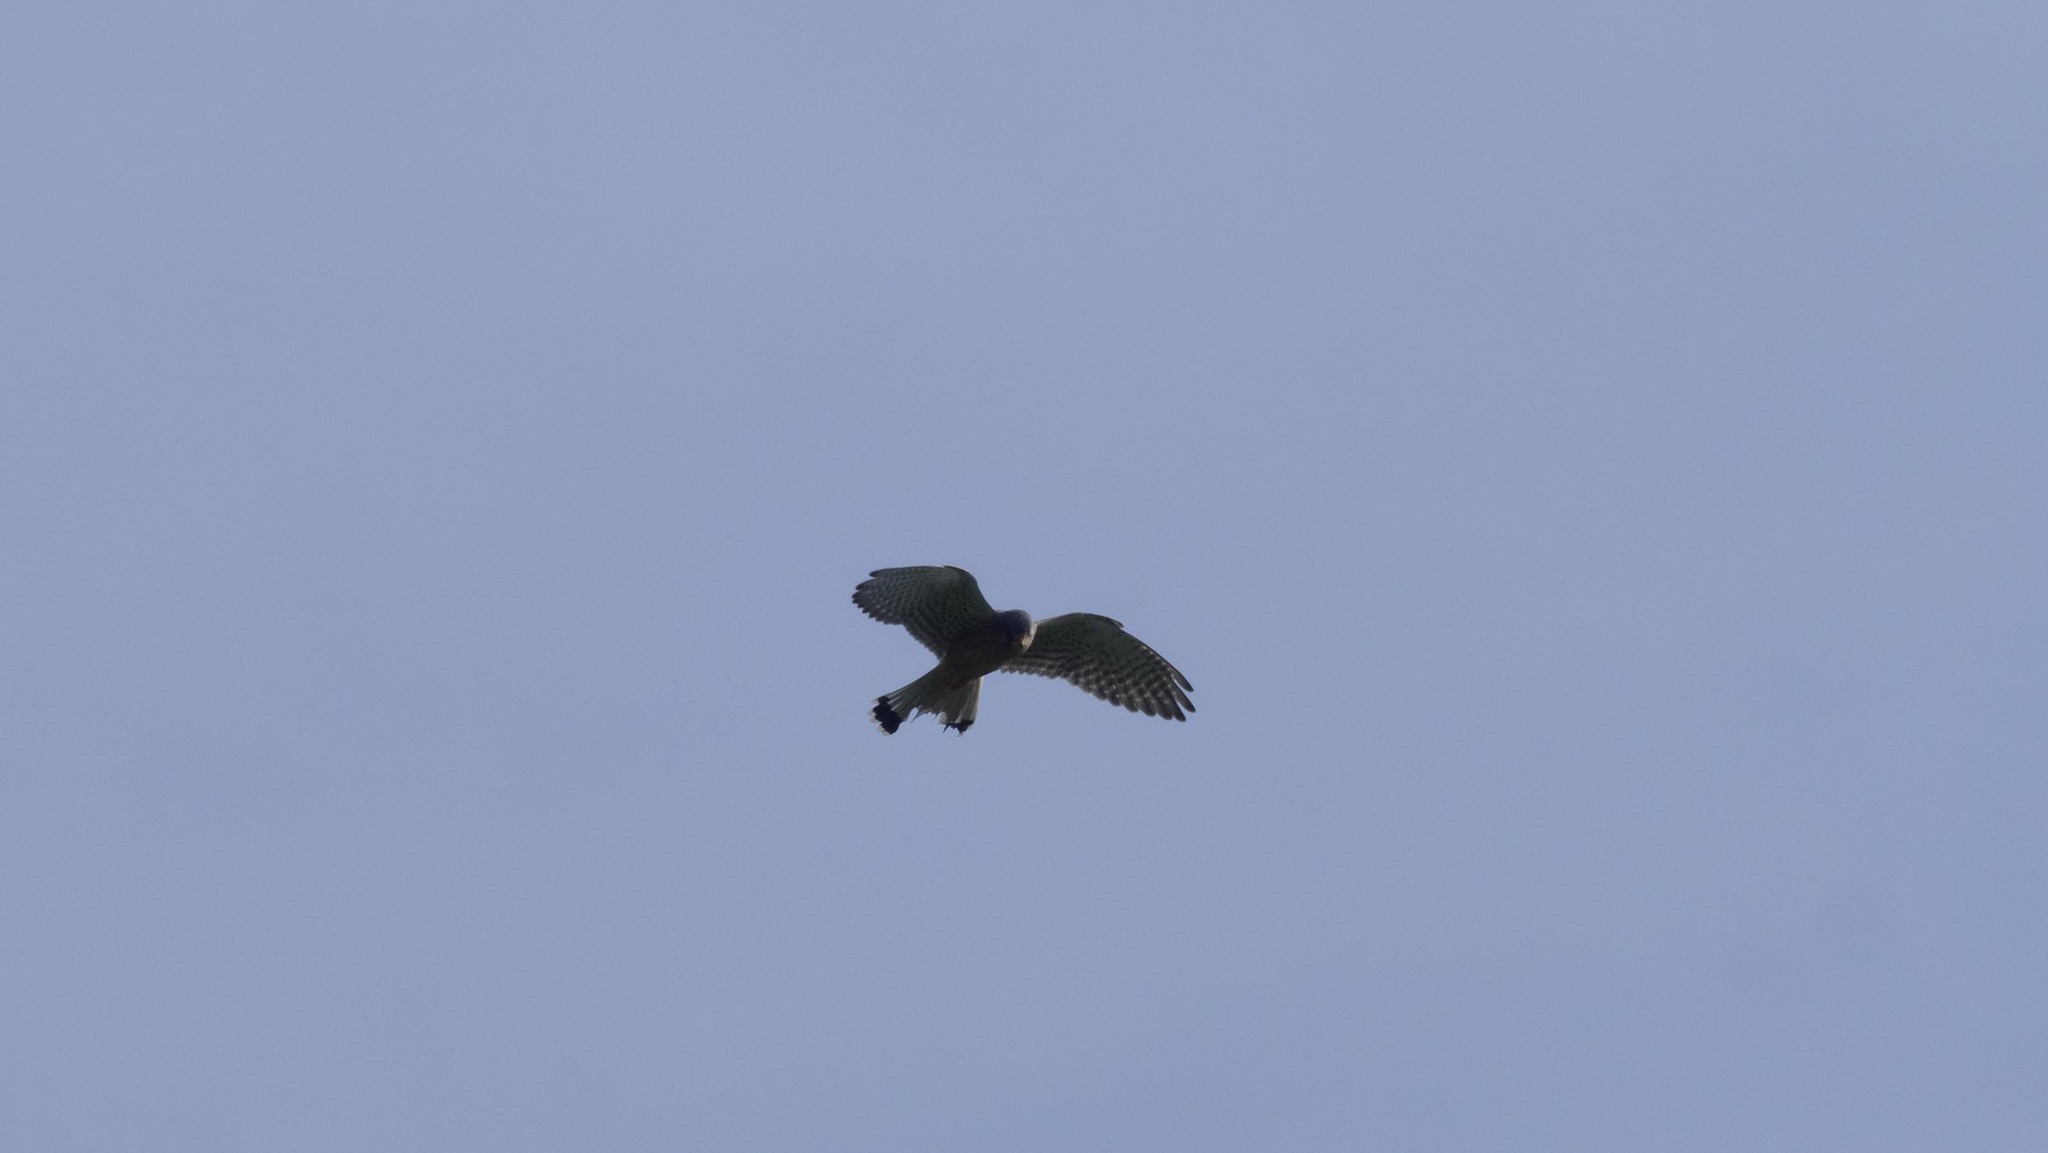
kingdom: Animalia
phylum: Chordata
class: Aves
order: Falconiformes
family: Falconidae
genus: Falco
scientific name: Falco tinnunculus
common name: Common kestrel
